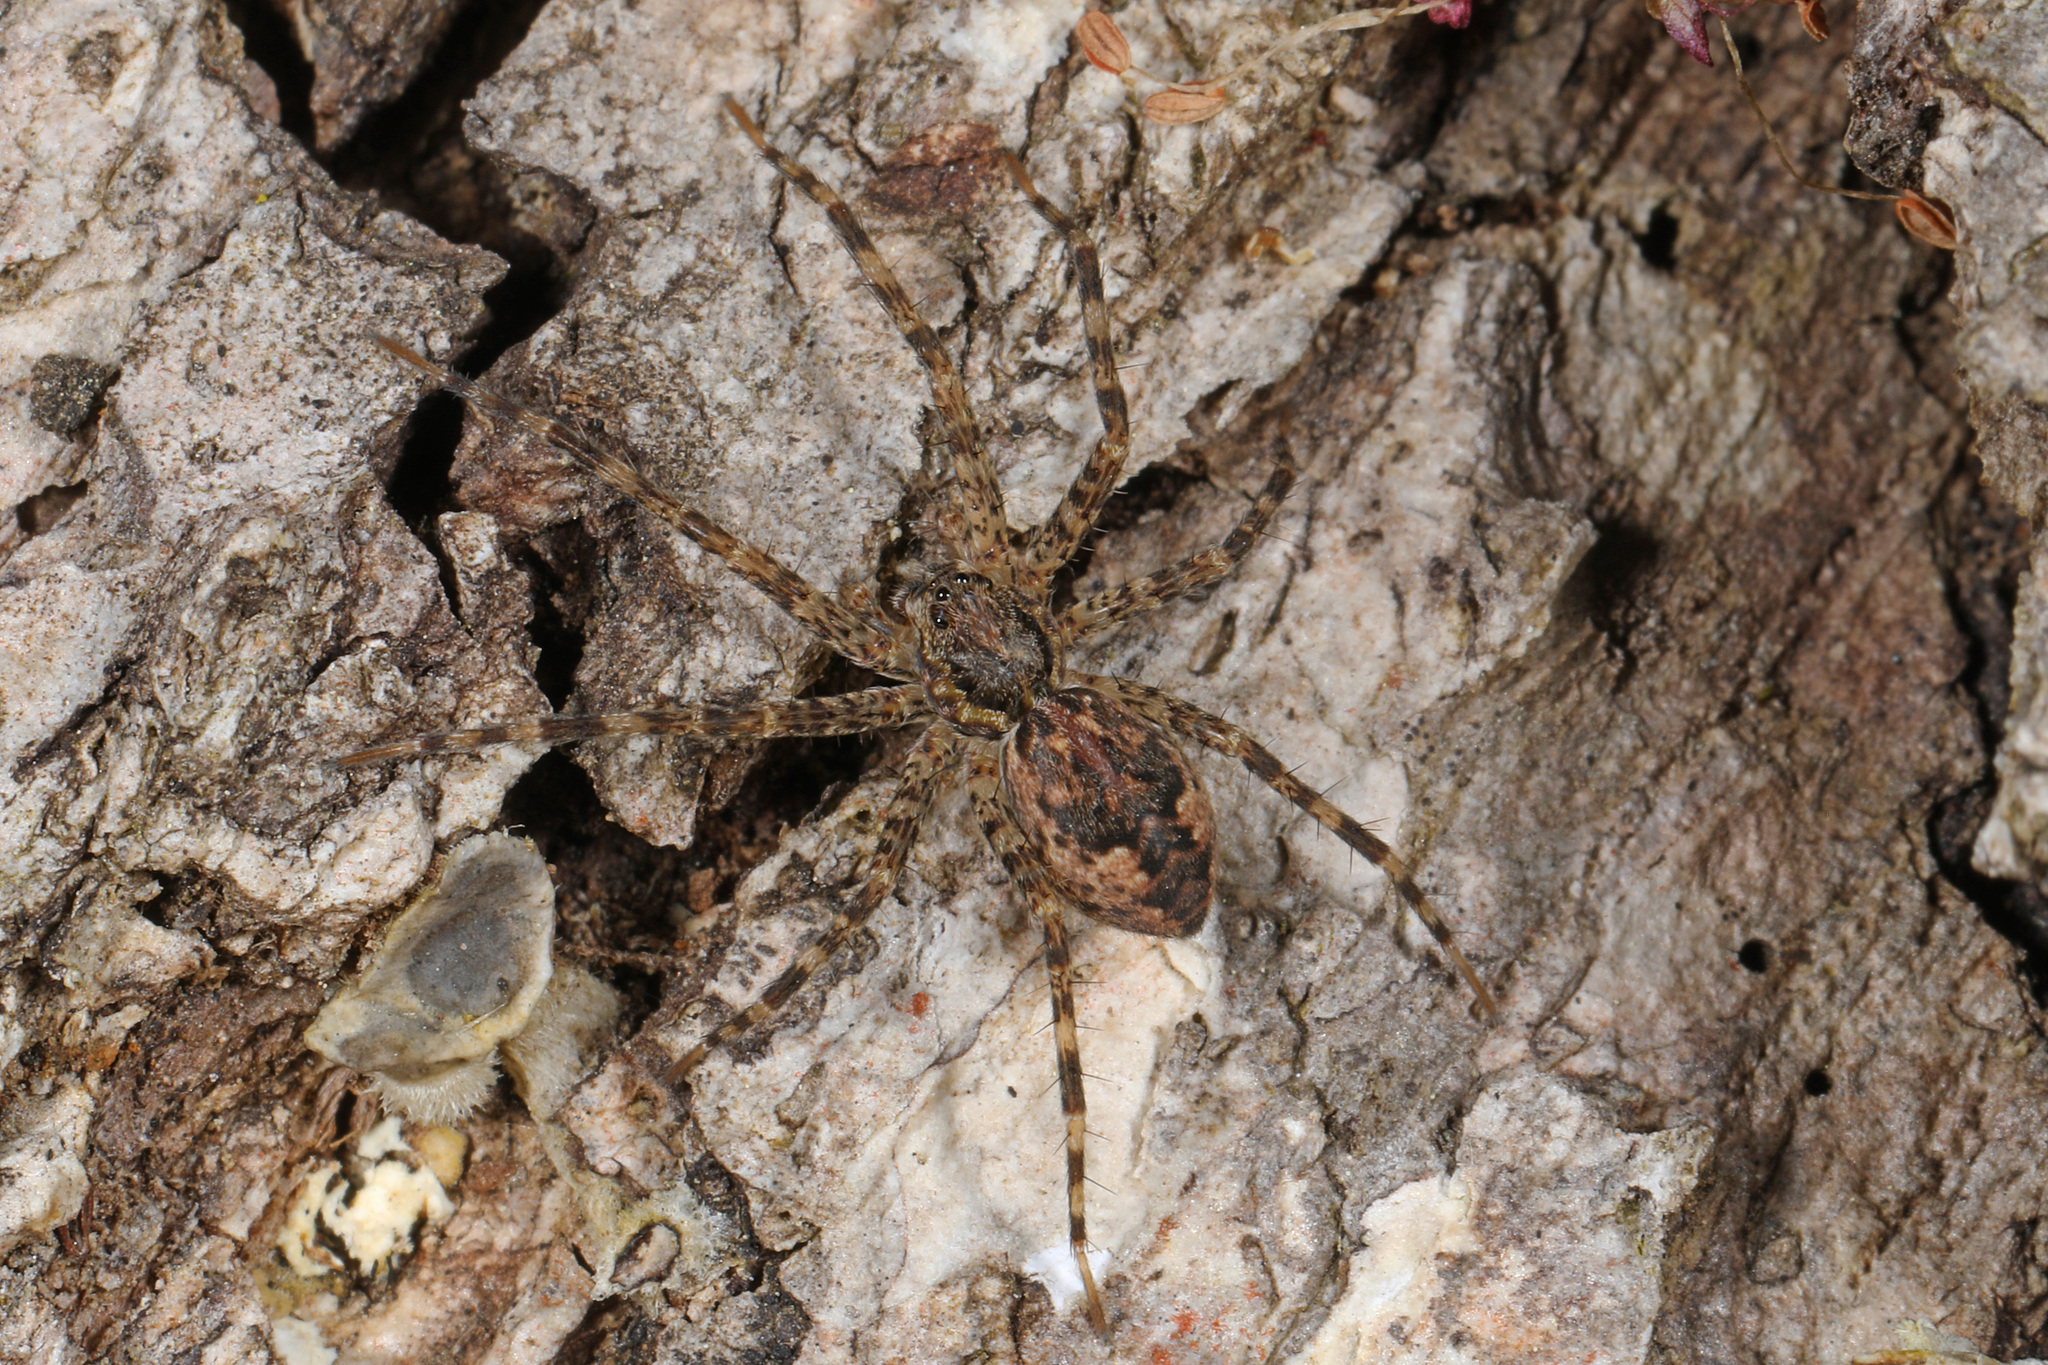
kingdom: Animalia
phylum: Arthropoda
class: Arachnida
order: Araneae
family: Pisauridae
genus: Dolomedes
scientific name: Dolomedes tenebrosus
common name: Dark fishing spider
